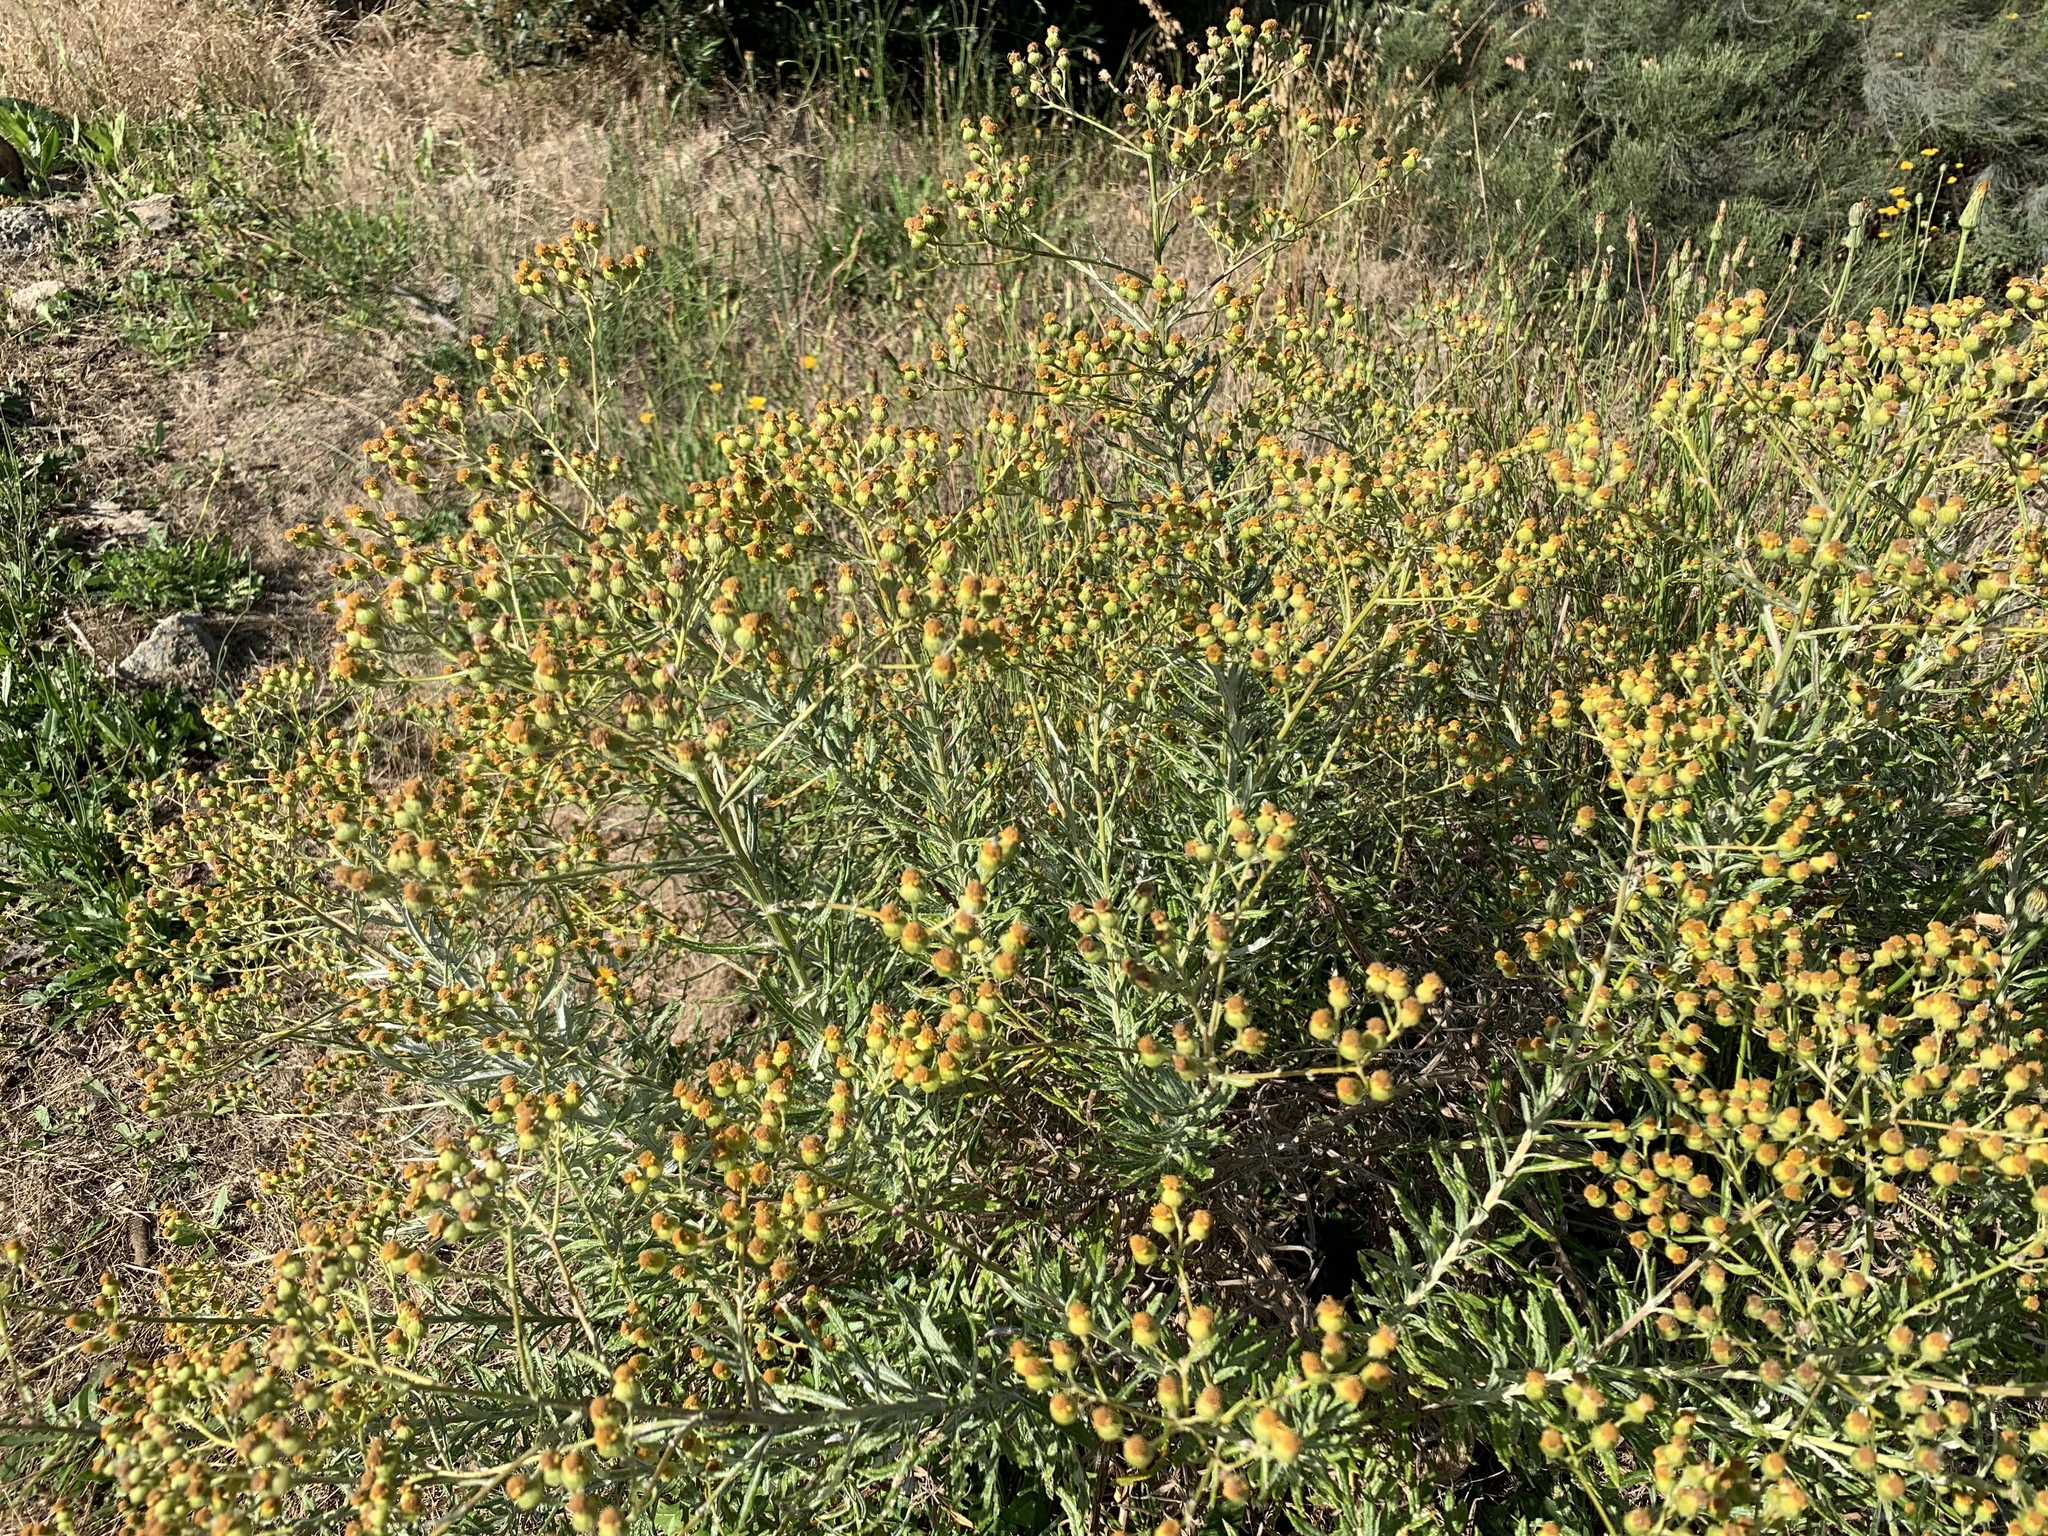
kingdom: Plantae
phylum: Tracheophyta
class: Magnoliopsida
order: Asterales
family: Asteraceae
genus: Senecio
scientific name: Senecio pterophorus
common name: Shoddy ragwort
